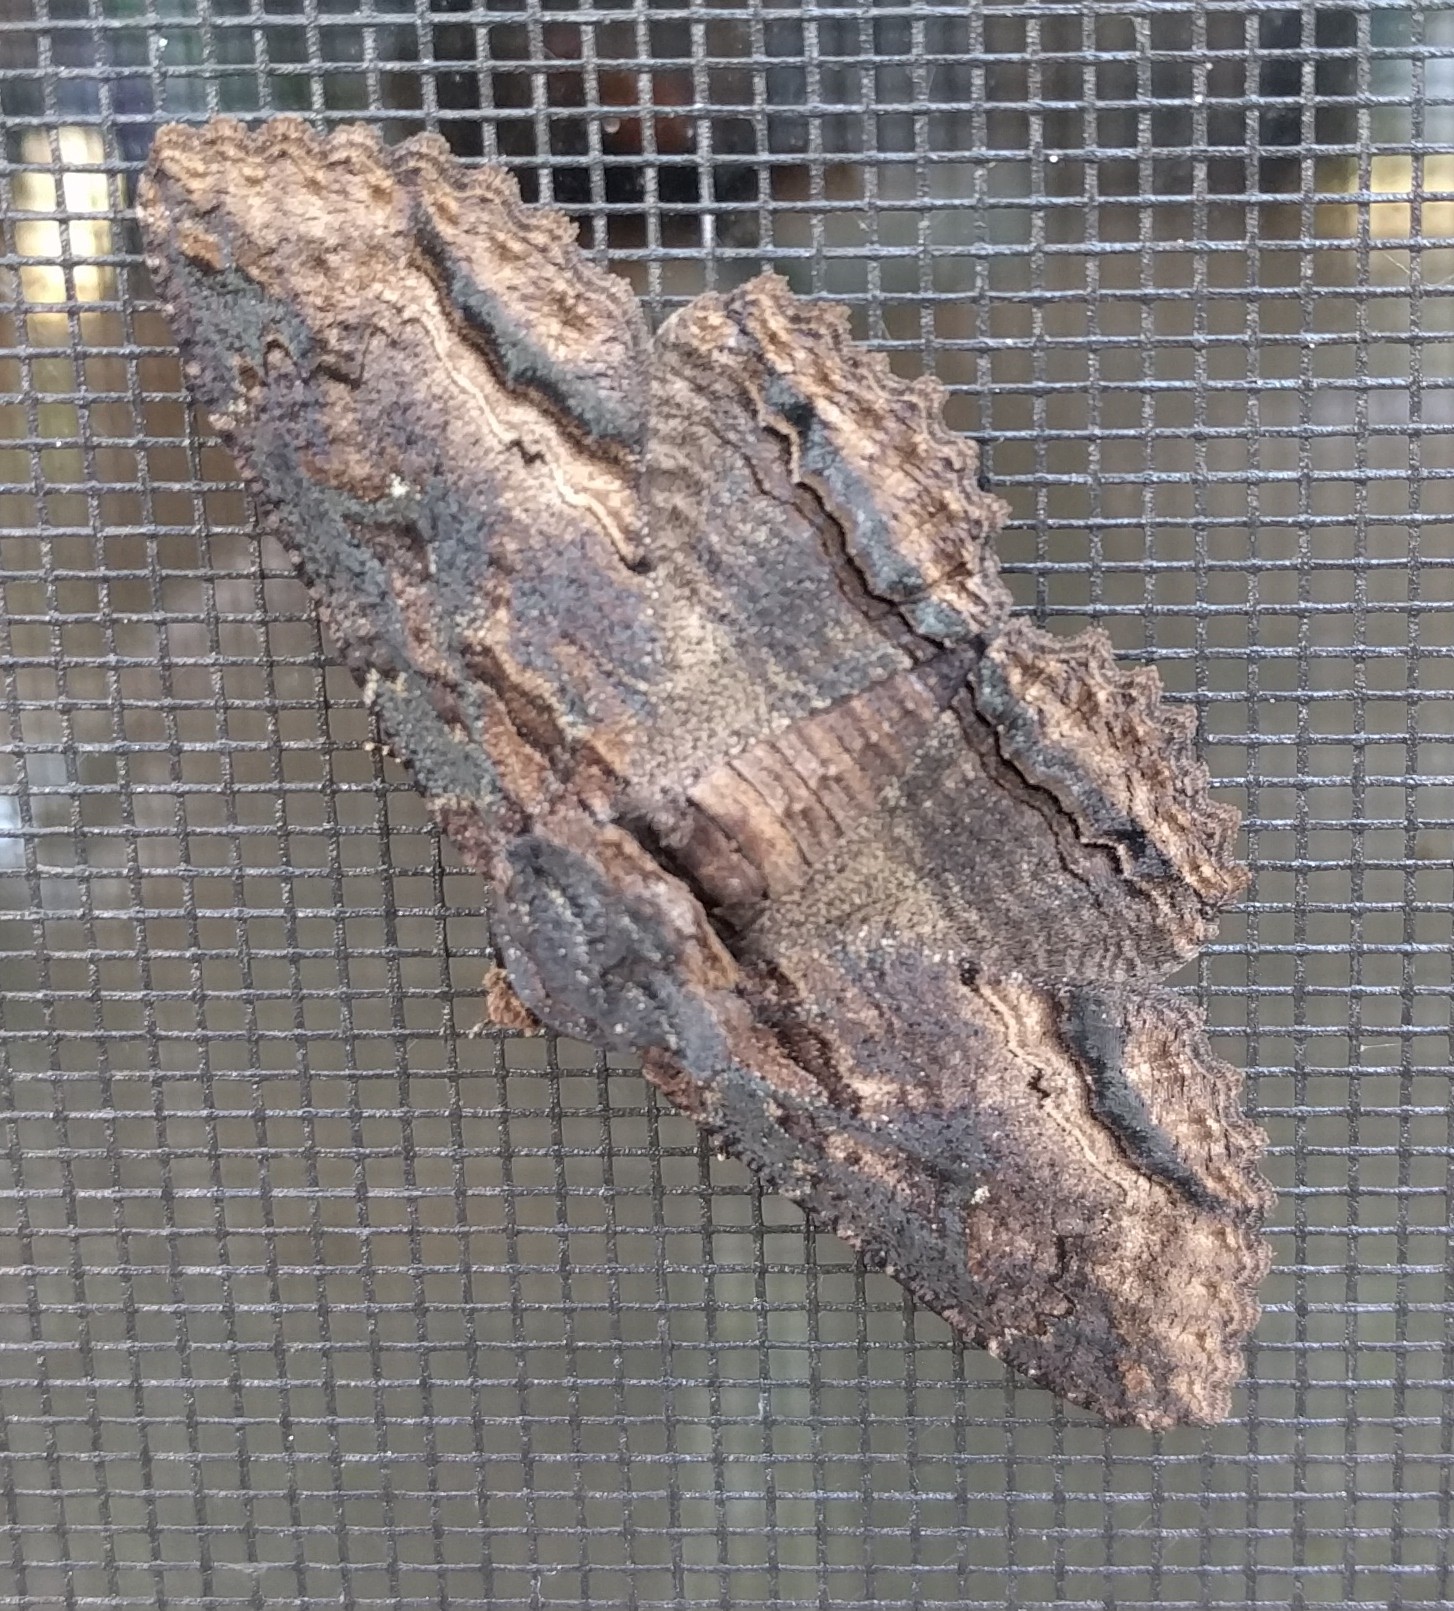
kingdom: Animalia
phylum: Arthropoda
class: Insecta
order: Lepidoptera
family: Erebidae
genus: Zale
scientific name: Zale lunata
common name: Lunate zale moth
